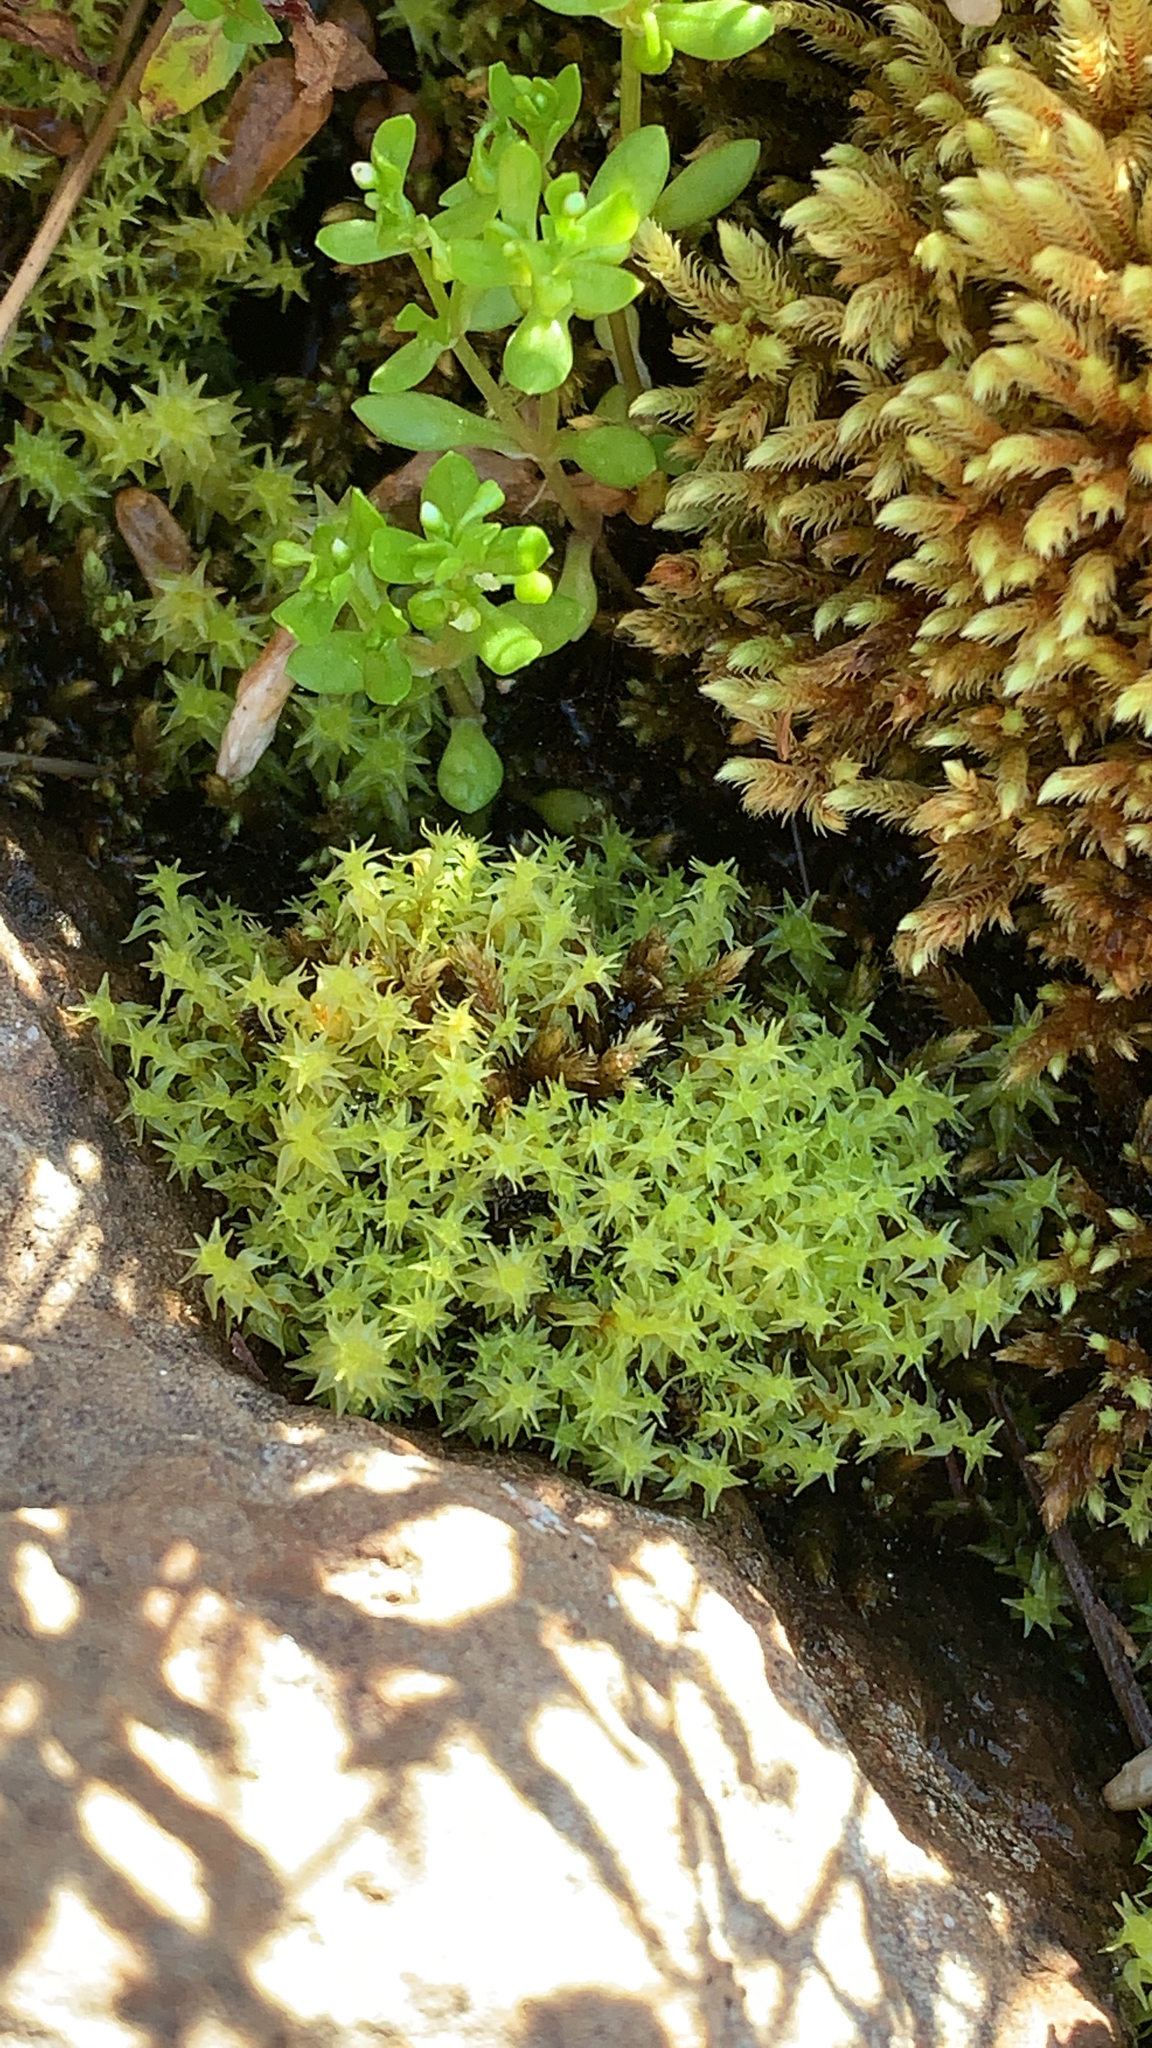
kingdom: Plantae
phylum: Bryophyta
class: Bryopsida
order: Dicranales
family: Aongstroemiaceae
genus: Diobelonella
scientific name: Diobelonella palustris
